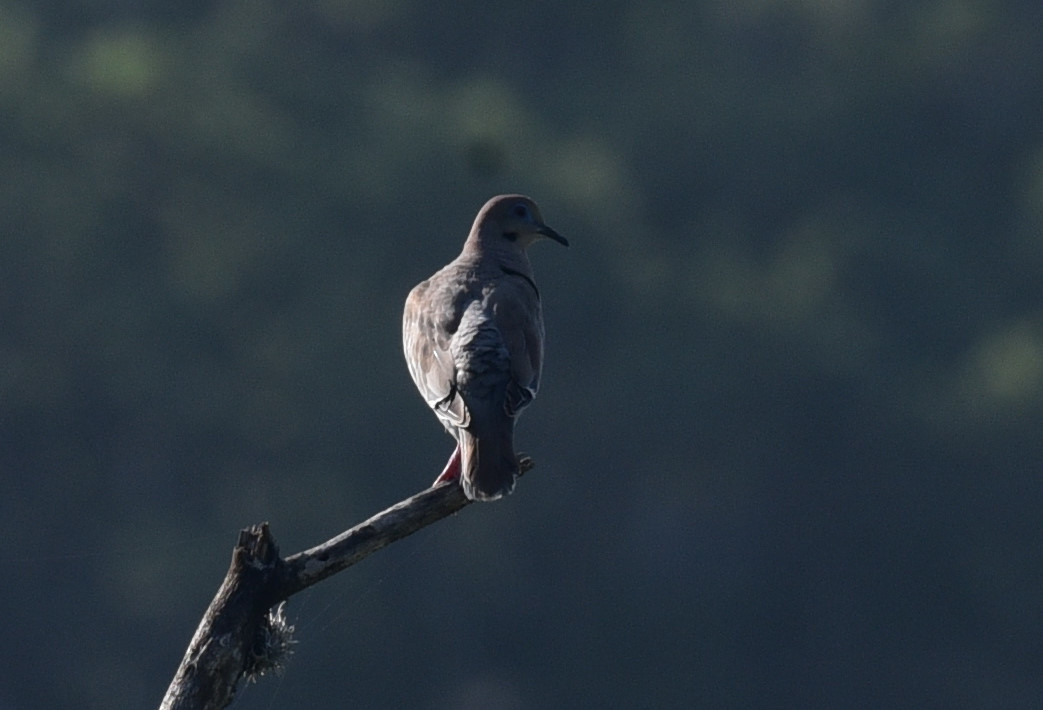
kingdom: Animalia
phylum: Chordata
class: Aves
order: Columbiformes
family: Columbidae
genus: Zenaida
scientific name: Zenaida asiatica
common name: White-winged dove
